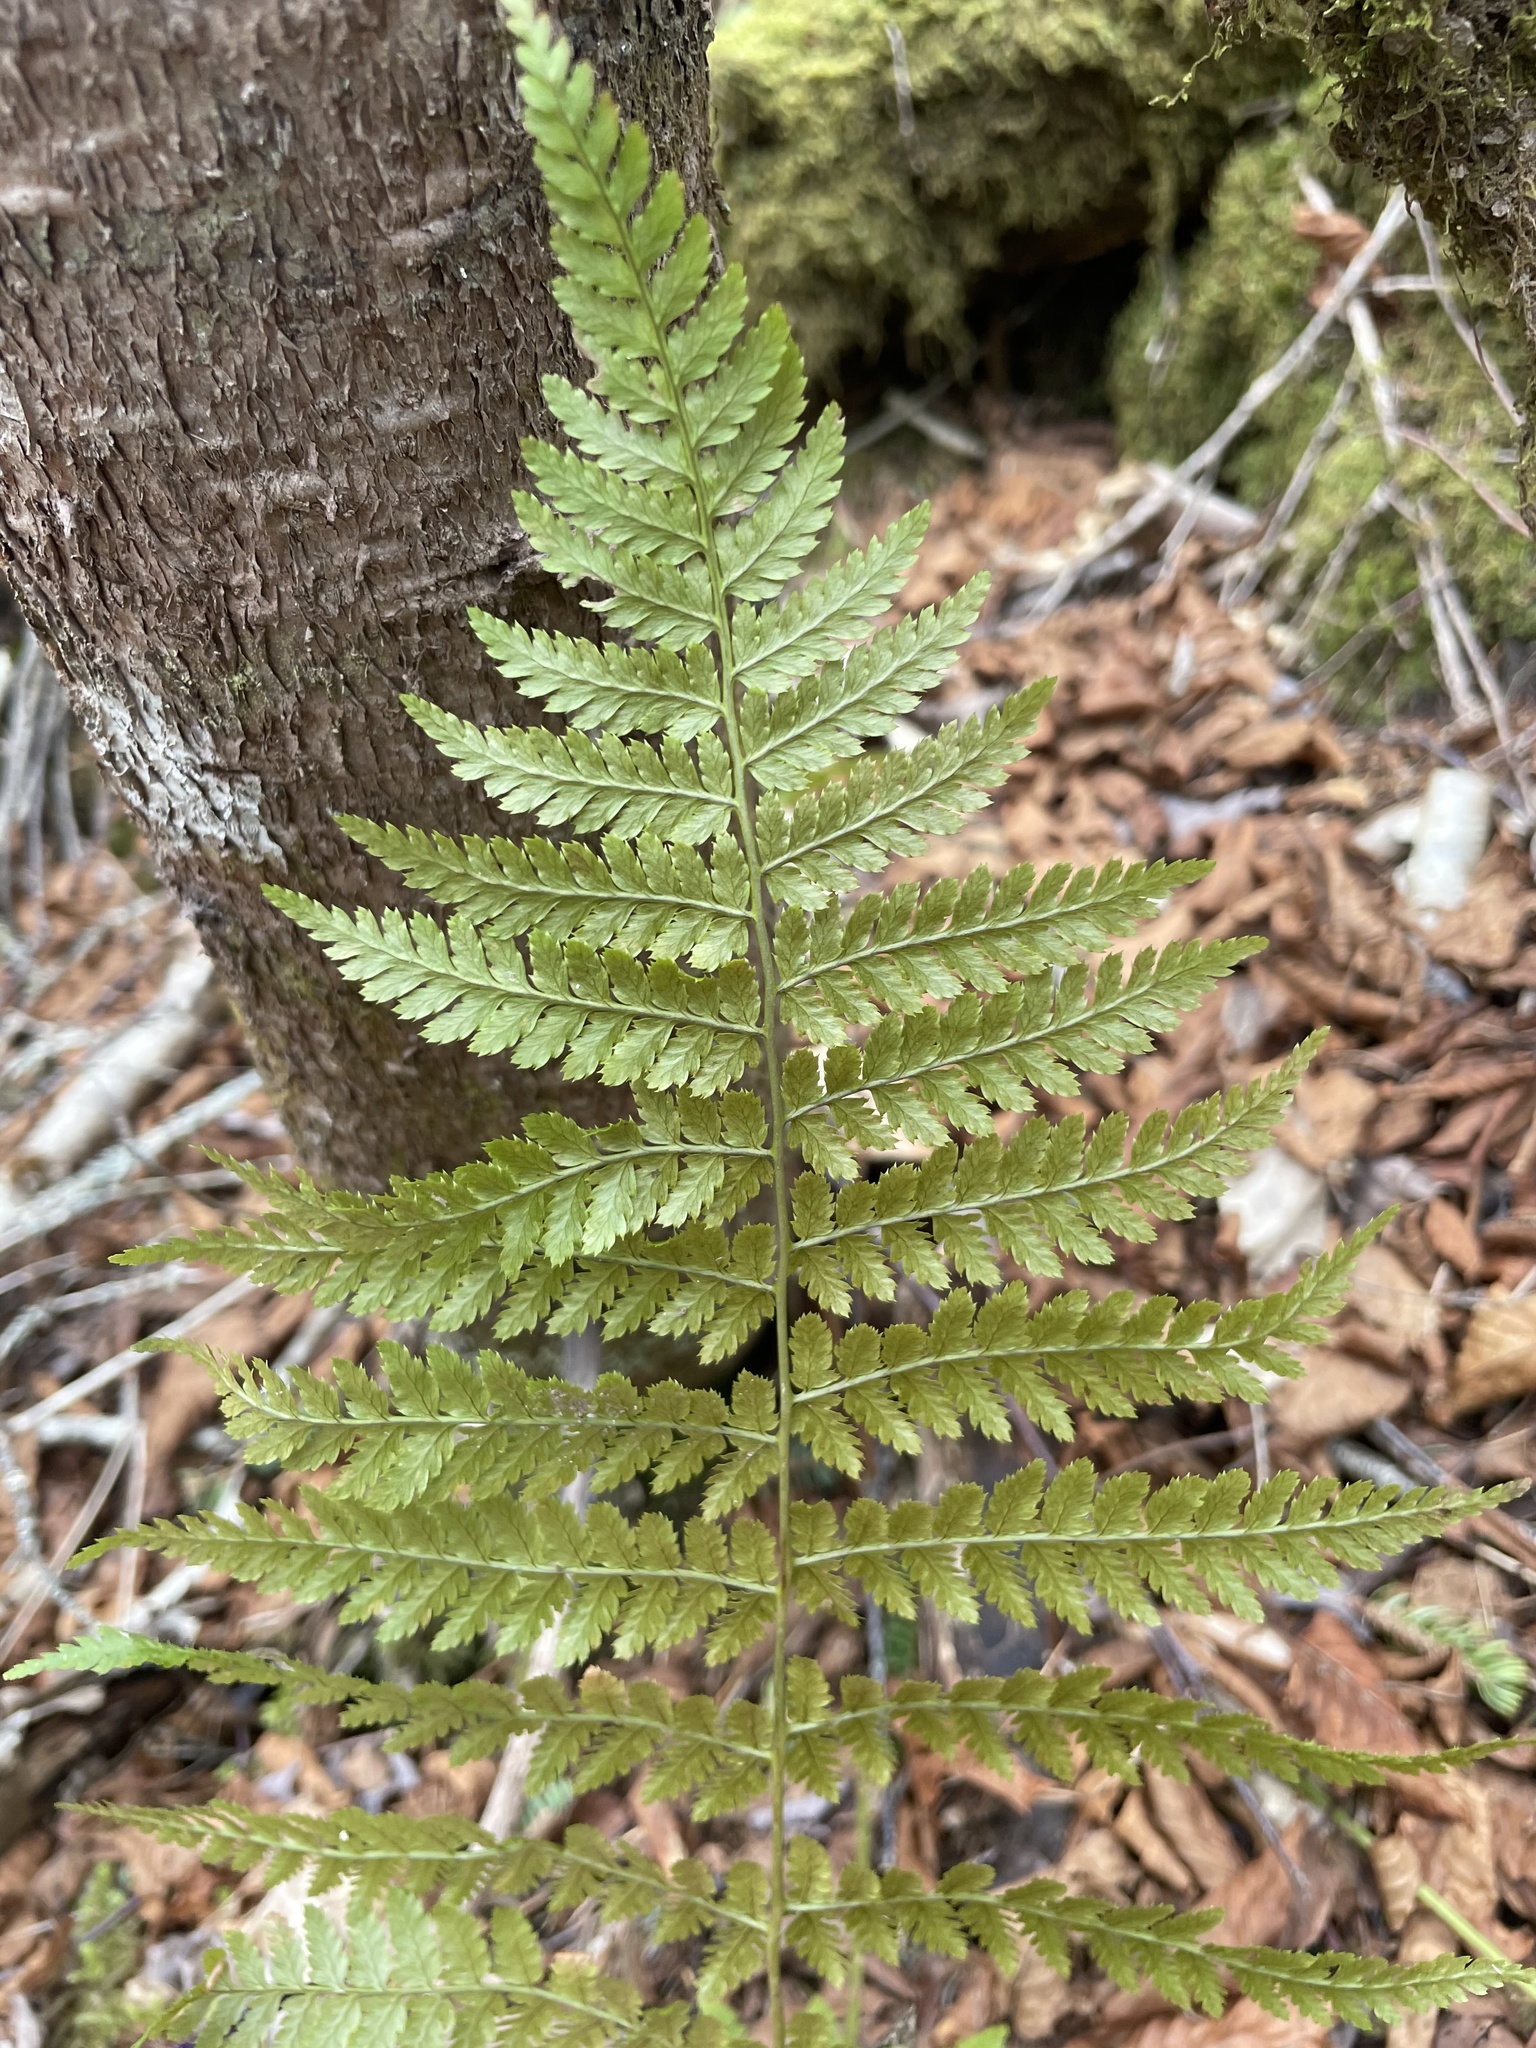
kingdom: Plantae
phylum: Tracheophyta
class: Polypodiopsida
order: Polypodiales
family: Dryopteridaceae
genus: Dryopteris
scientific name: Dryopteris intermedia
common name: Evergreen wood fern
